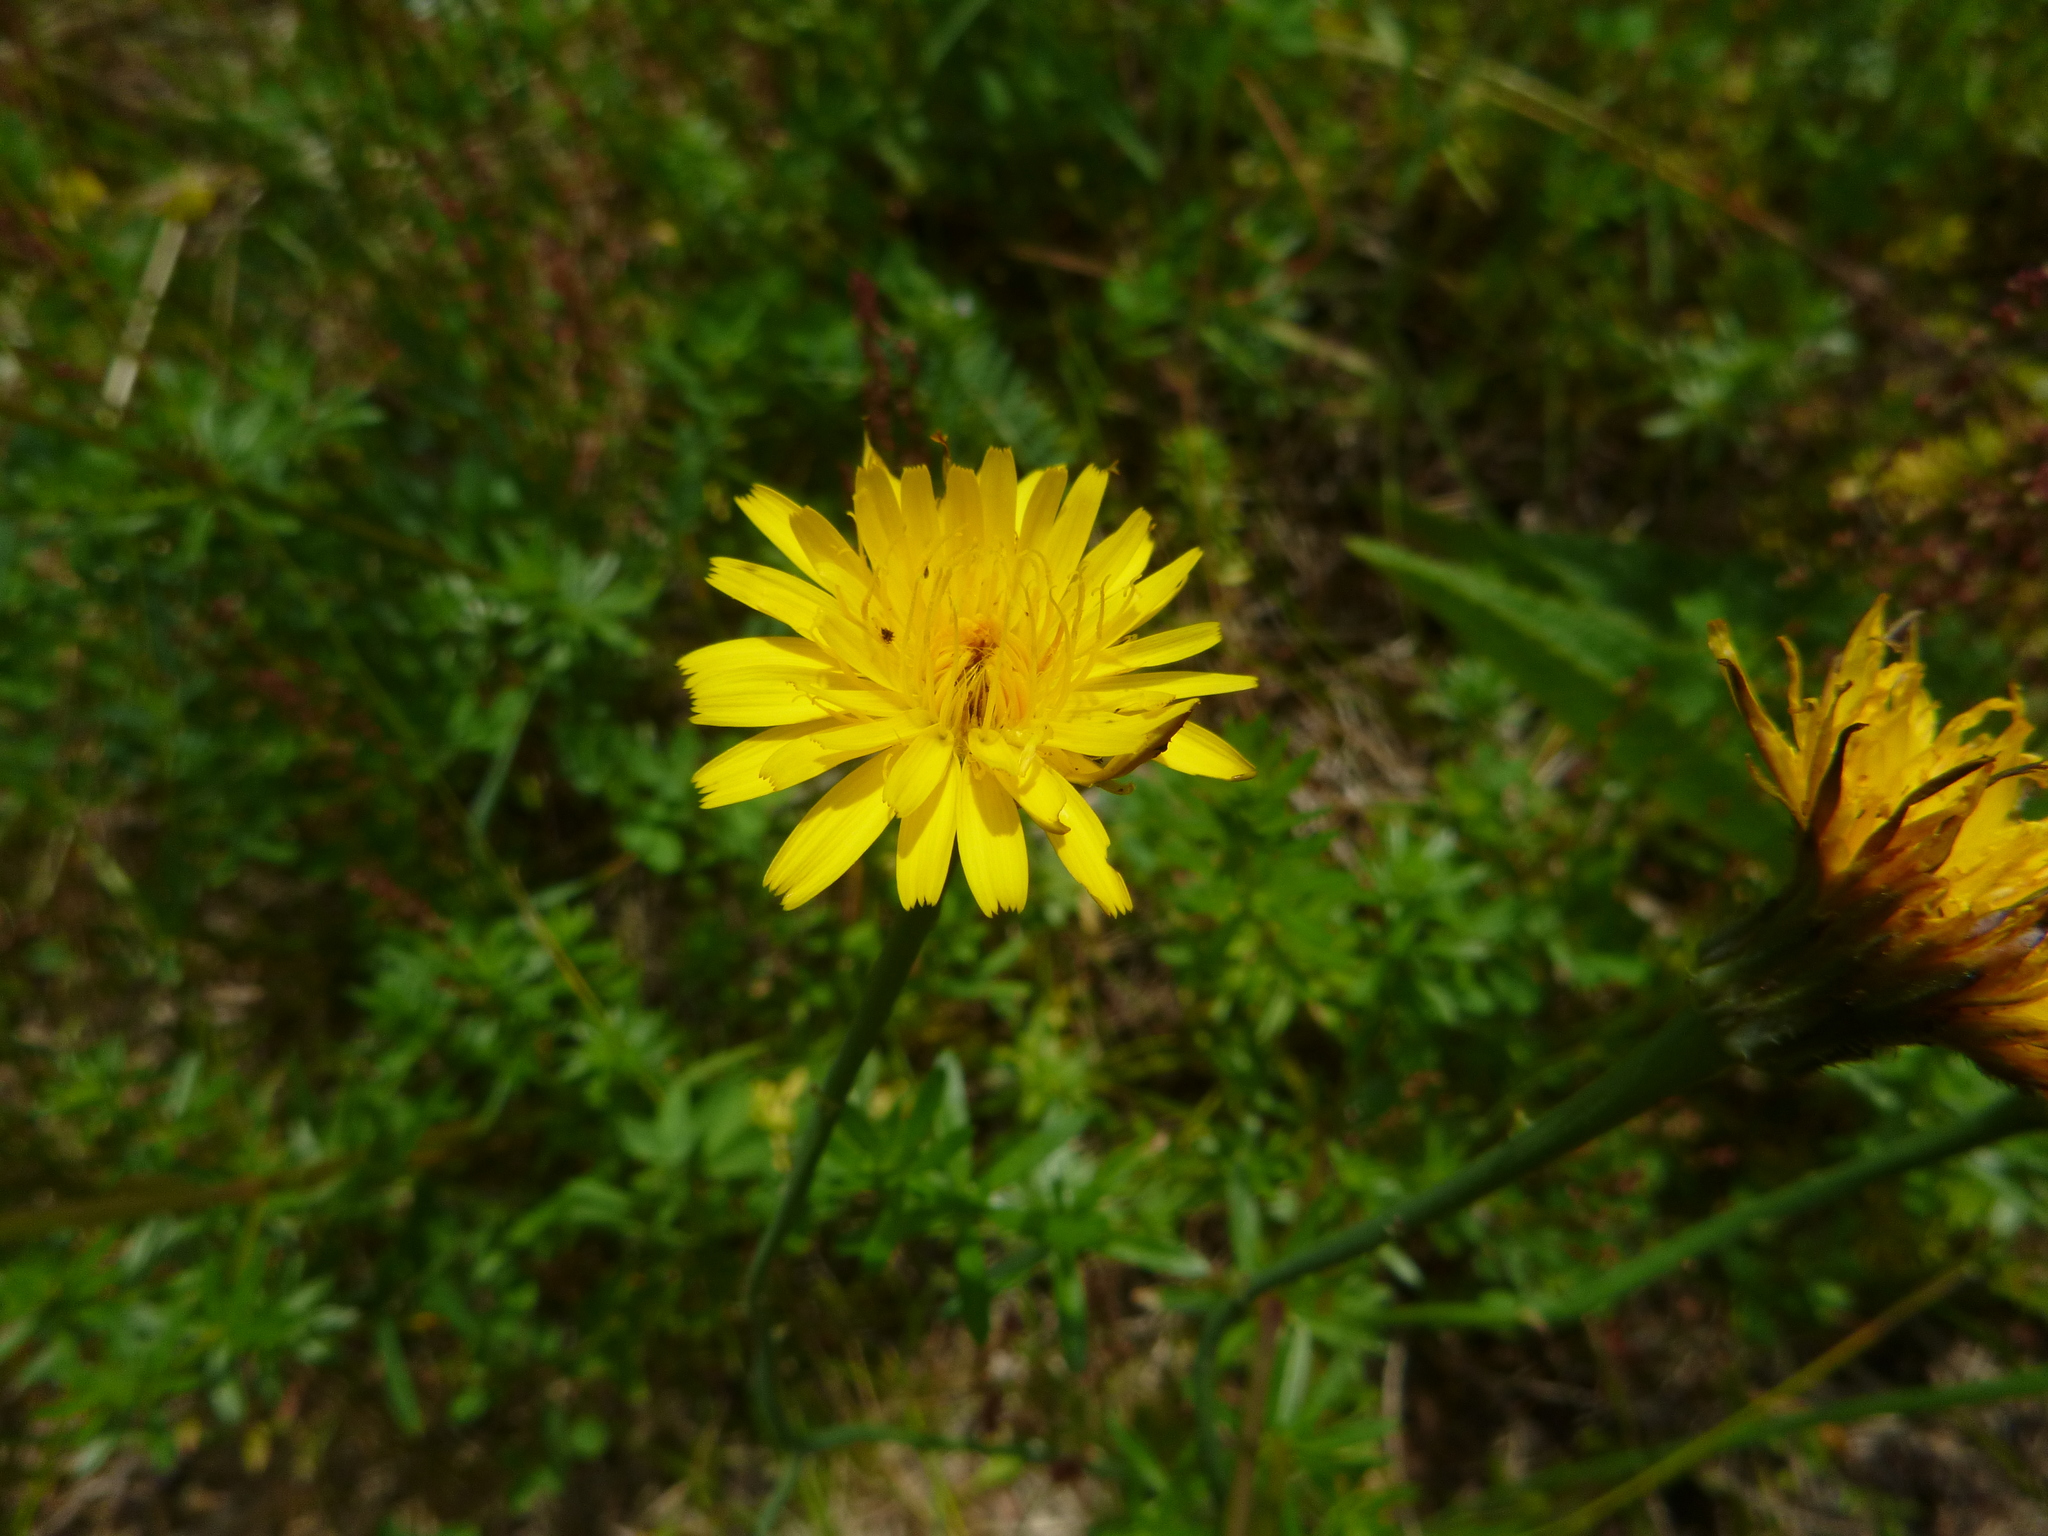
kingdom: Plantae
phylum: Tracheophyta
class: Magnoliopsida
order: Asterales
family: Asteraceae
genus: Hypochaeris
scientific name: Hypochaeris radicata
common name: Flatweed
